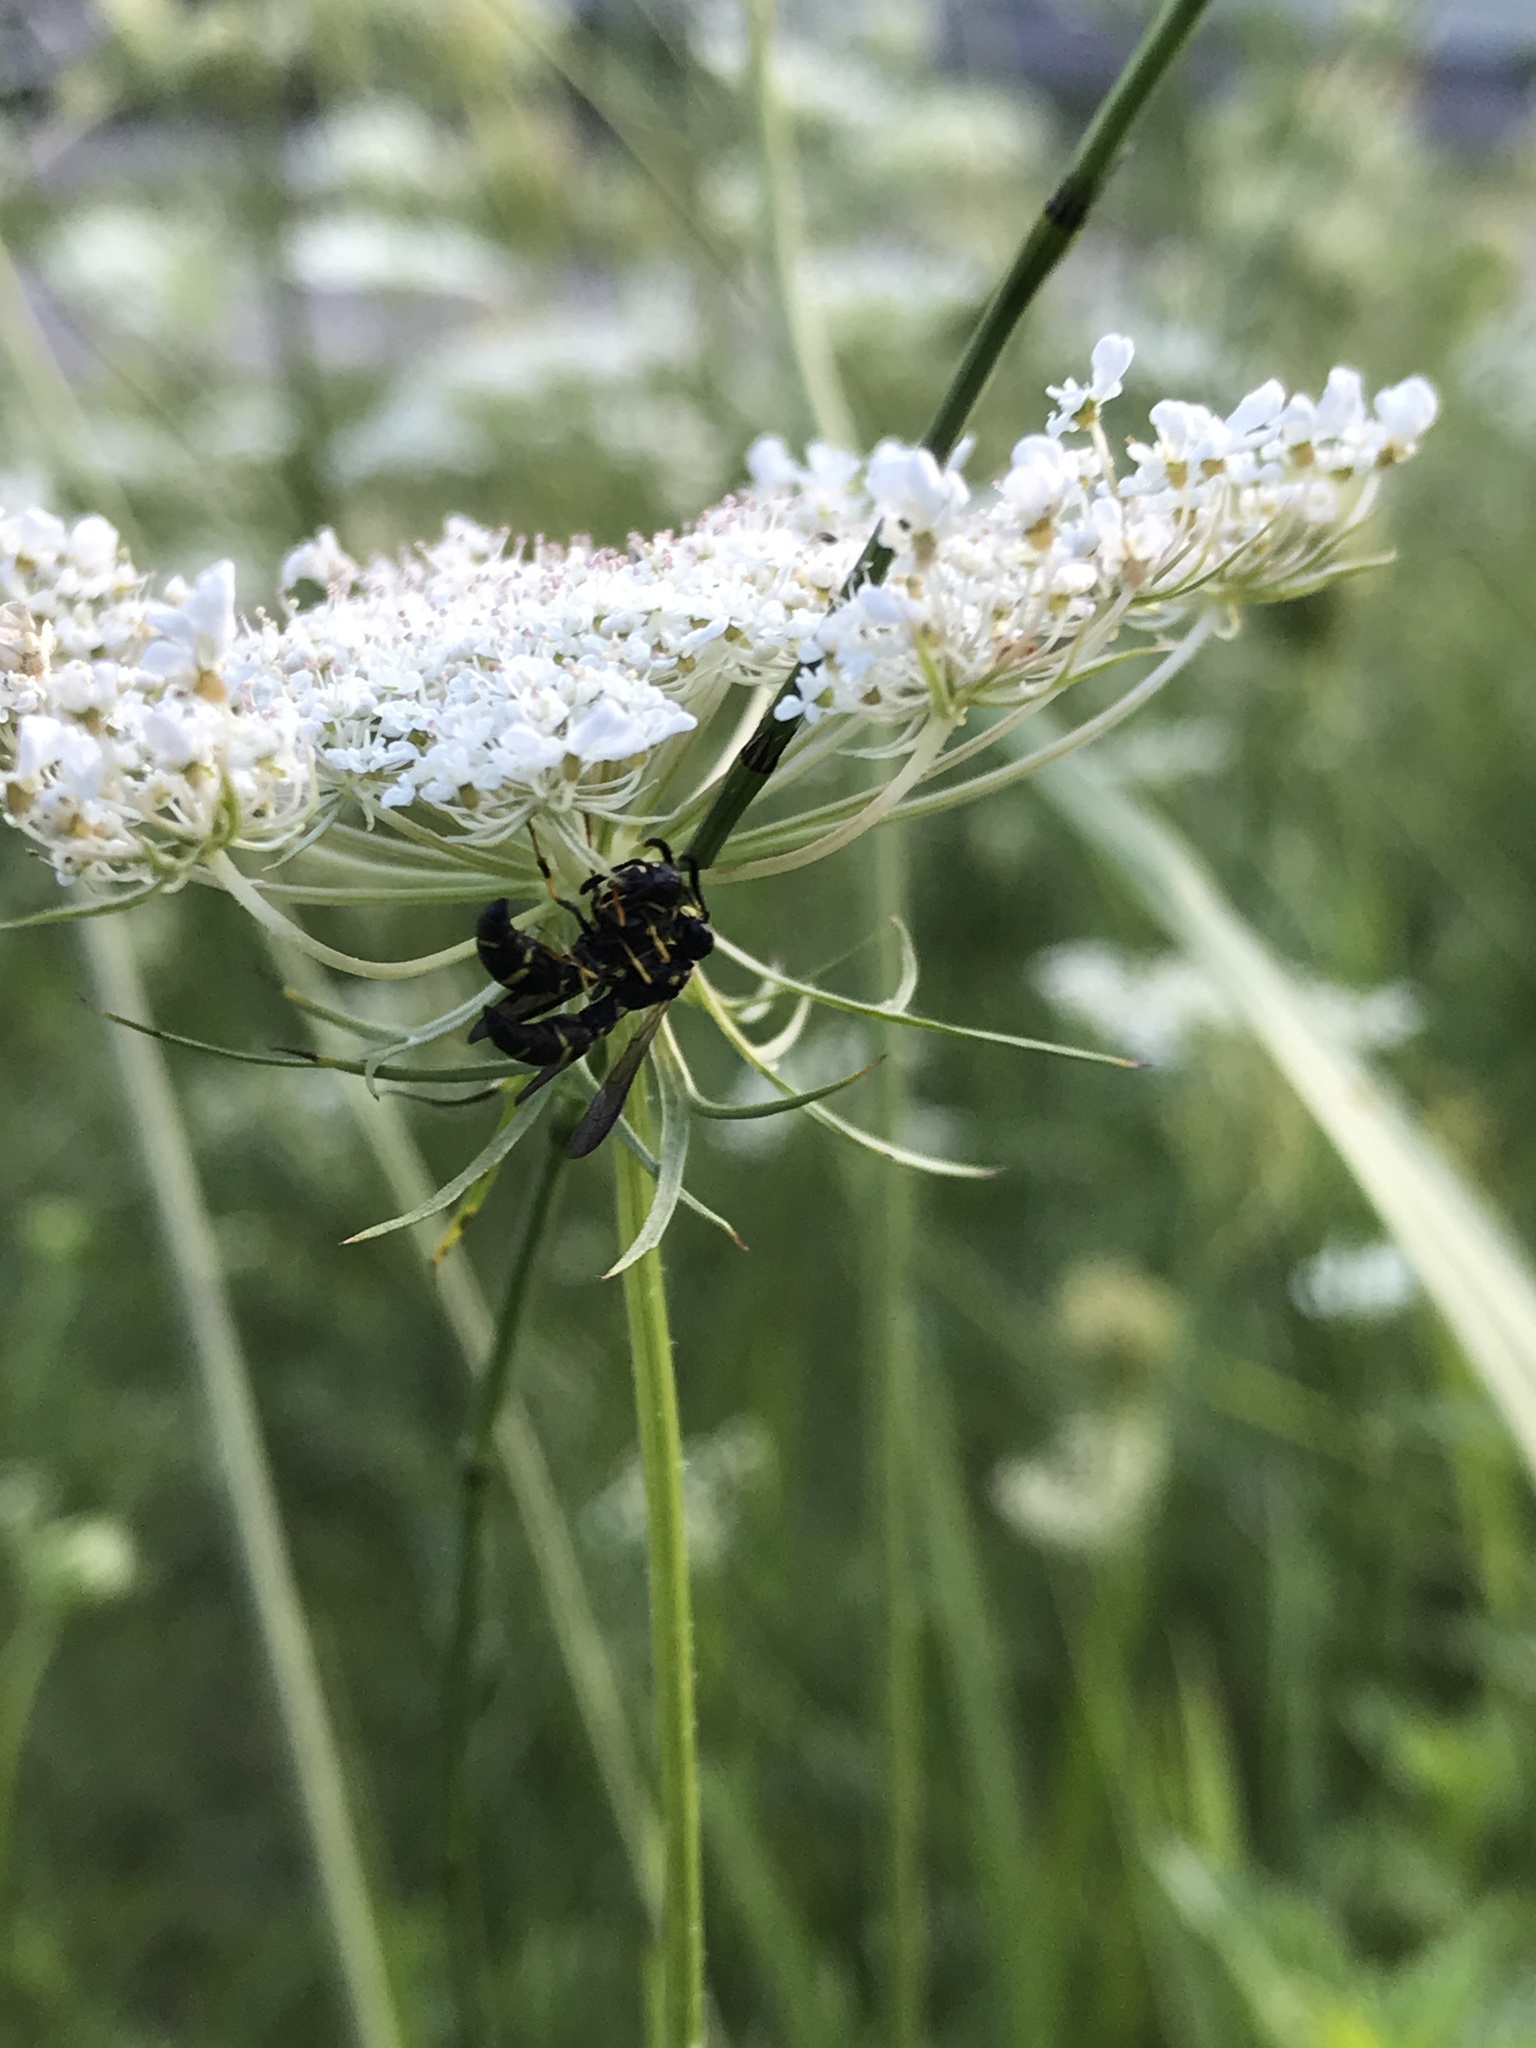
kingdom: Animalia
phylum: Arthropoda
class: Insecta
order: Hymenoptera
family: Eumenidae
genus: Symmorphus
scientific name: Symmorphus
